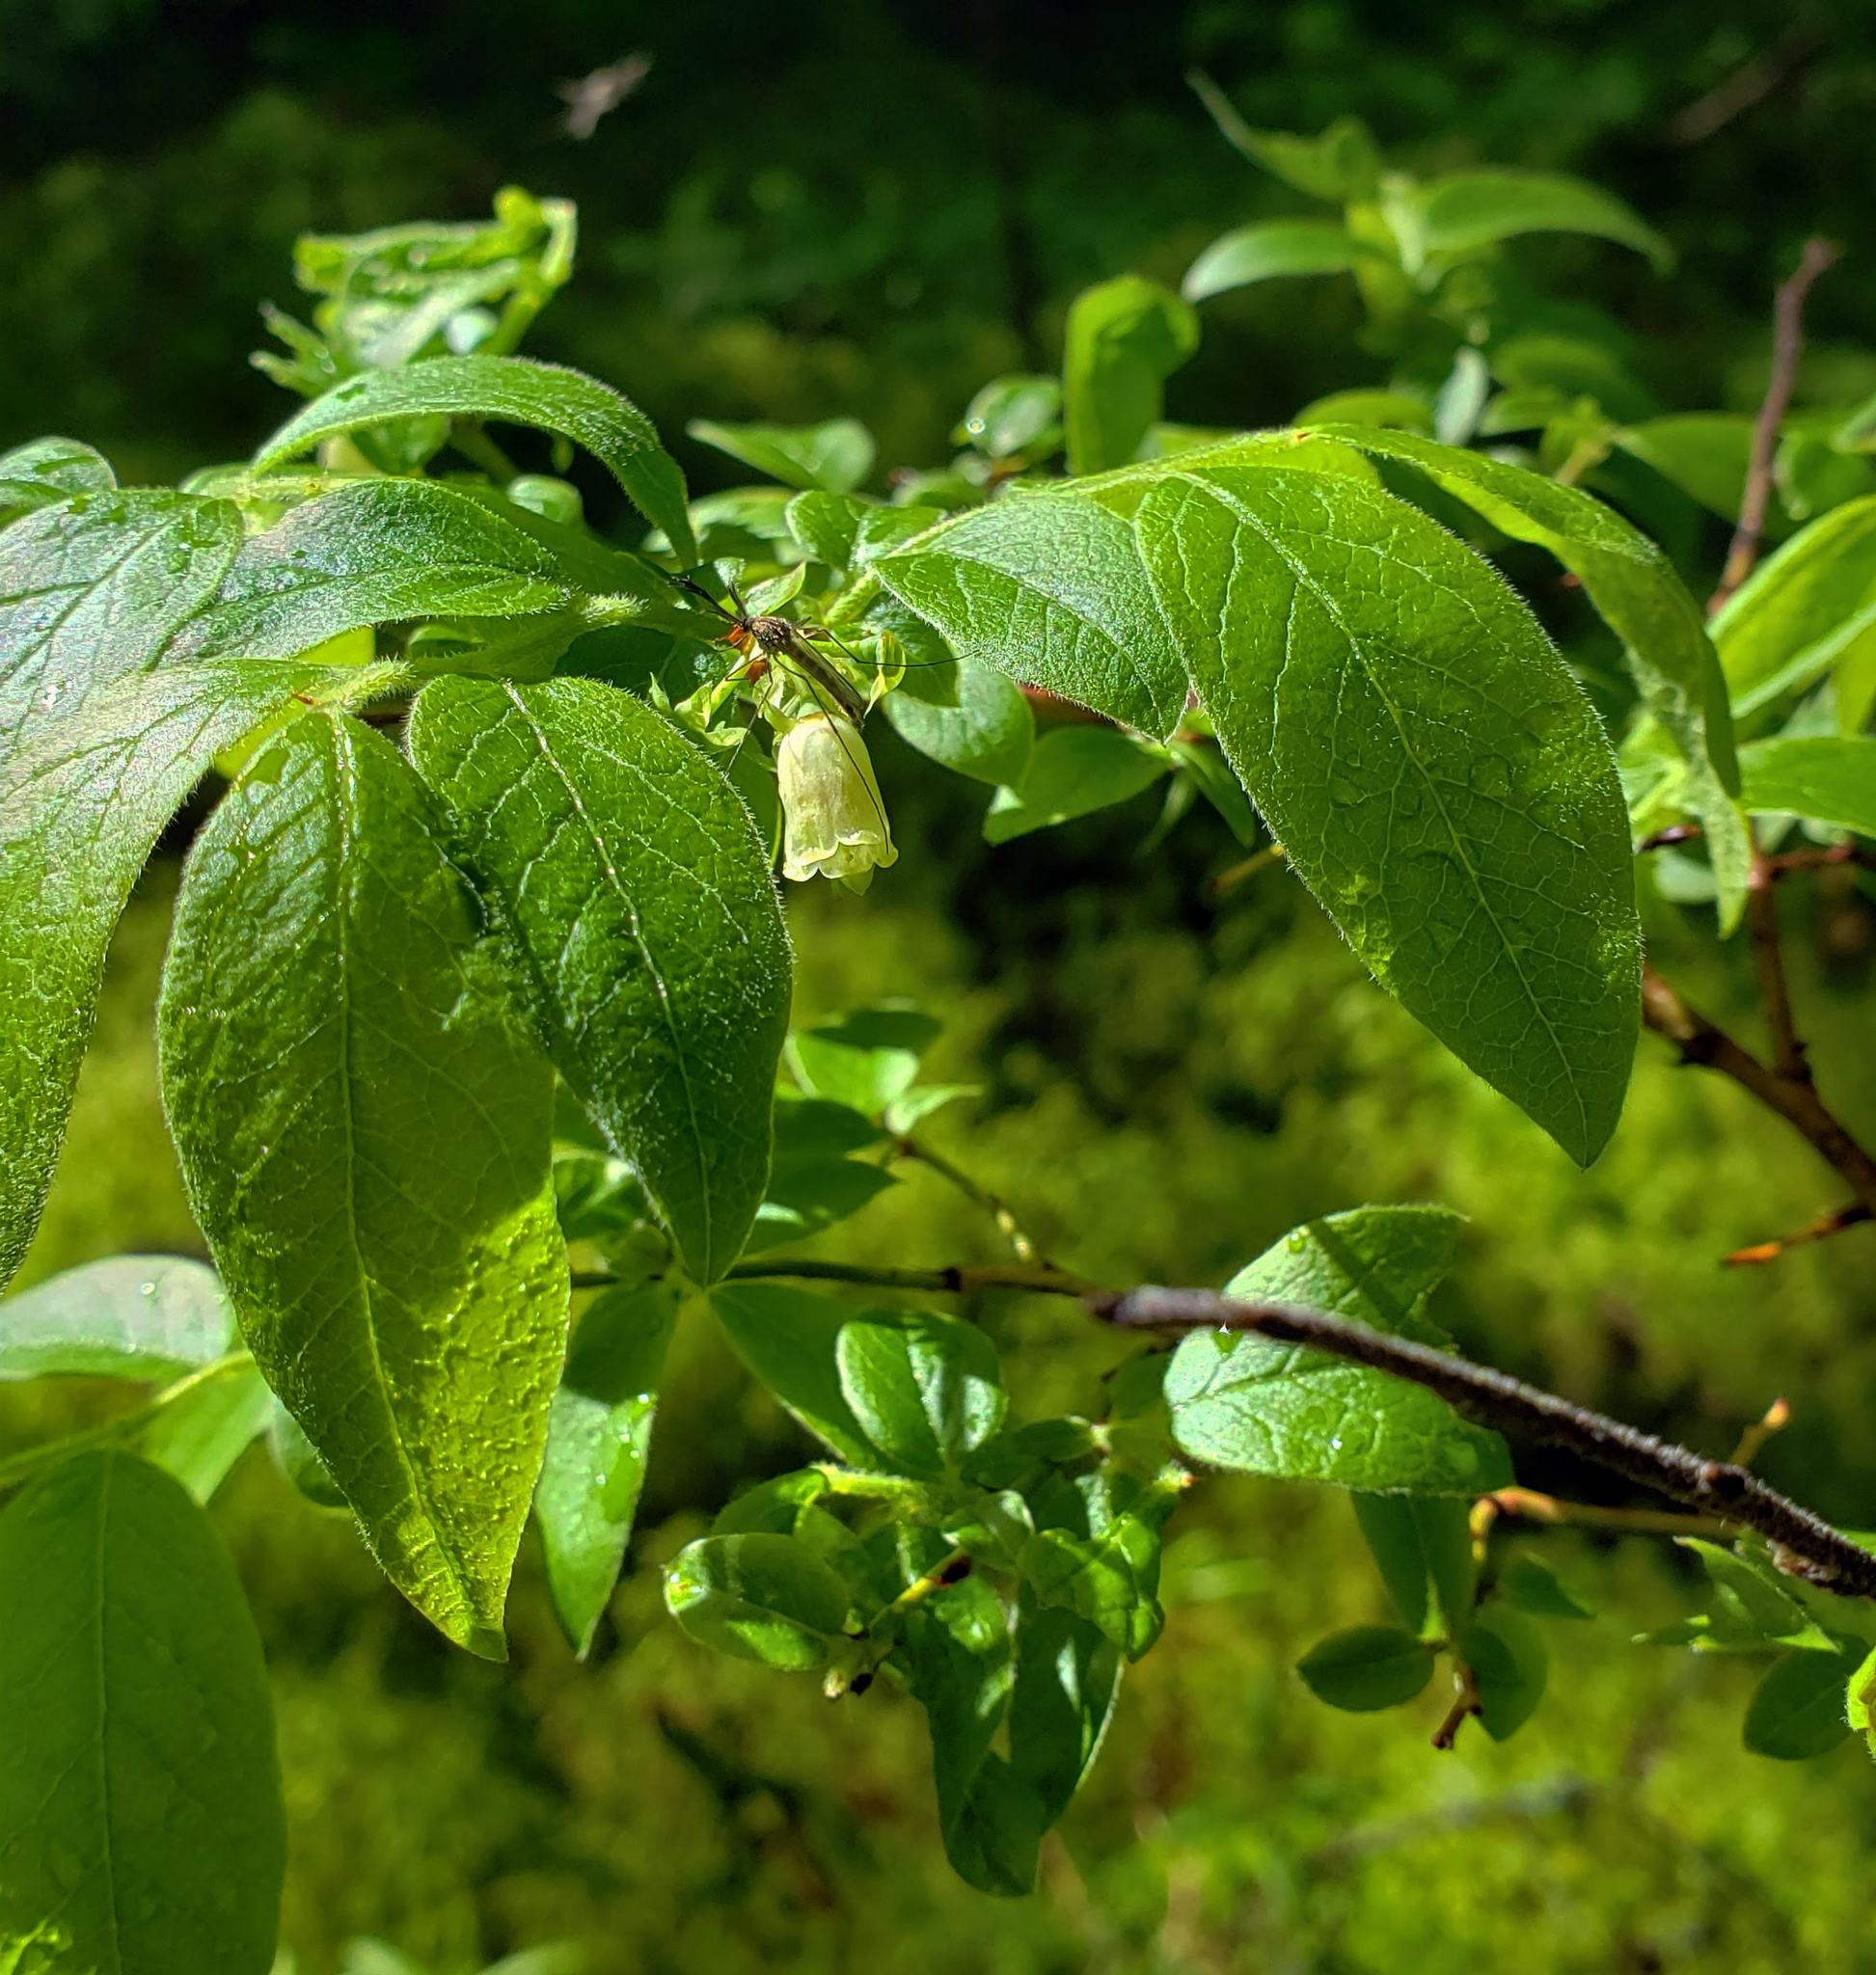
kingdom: Plantae
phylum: Tracheophyta
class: Magnoliopsida
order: Ericales
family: Ericaceae
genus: Vaccinium
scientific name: Vaccinium myrtilloides
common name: Canada blueberry
